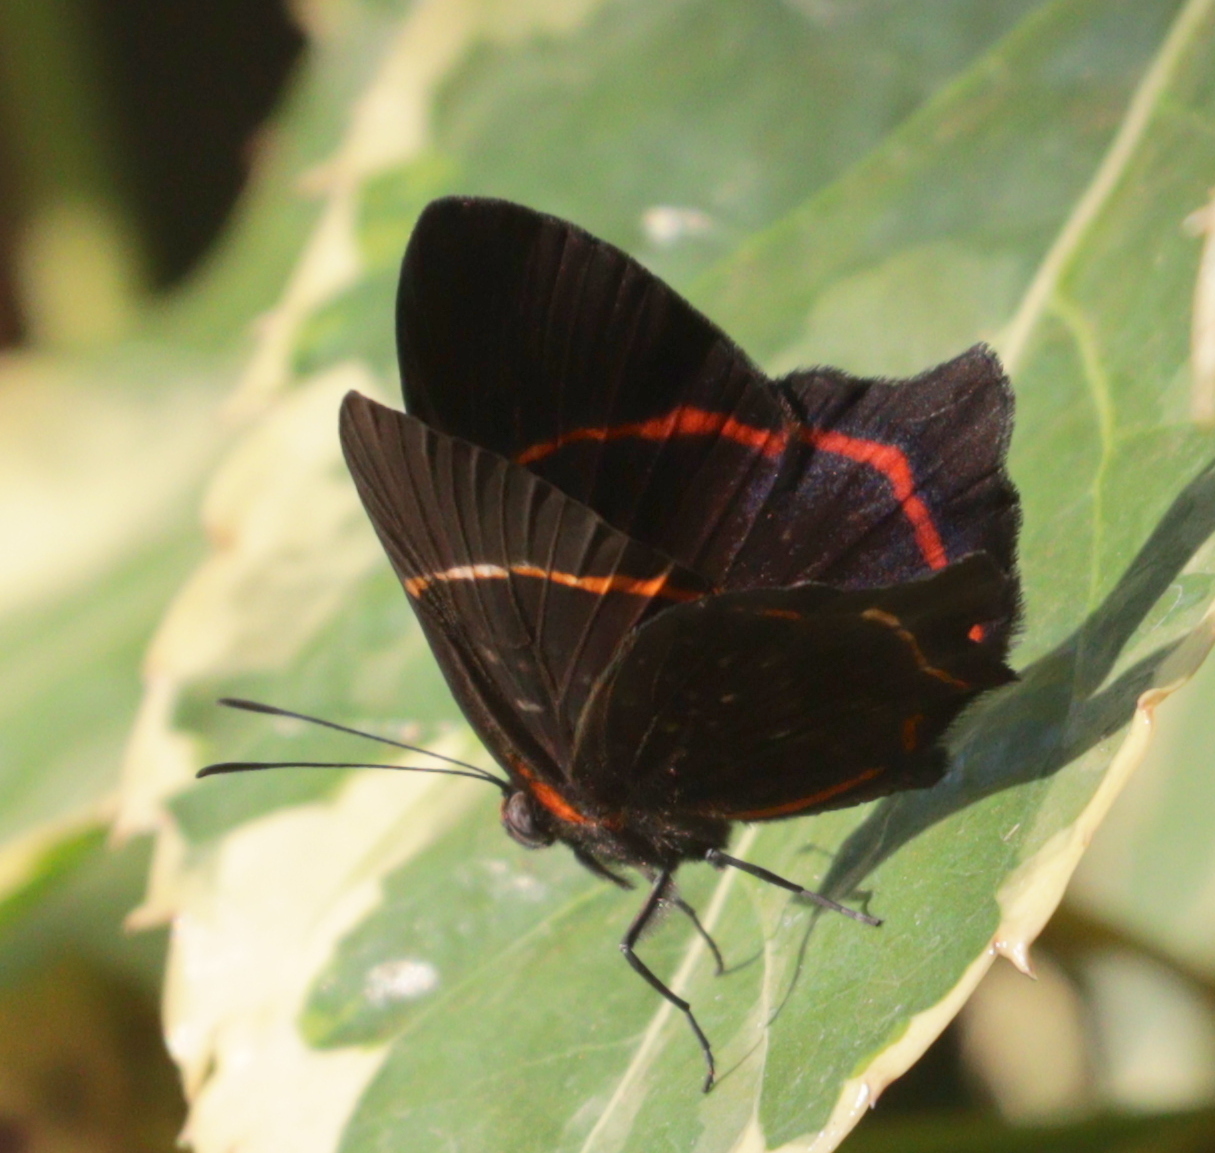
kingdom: Animalia
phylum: Arthropoda
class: Insecta
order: Lepidoptera
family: Riodinidae
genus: Riodina
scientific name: Riodina lysippus
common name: Lysippus metalmark
